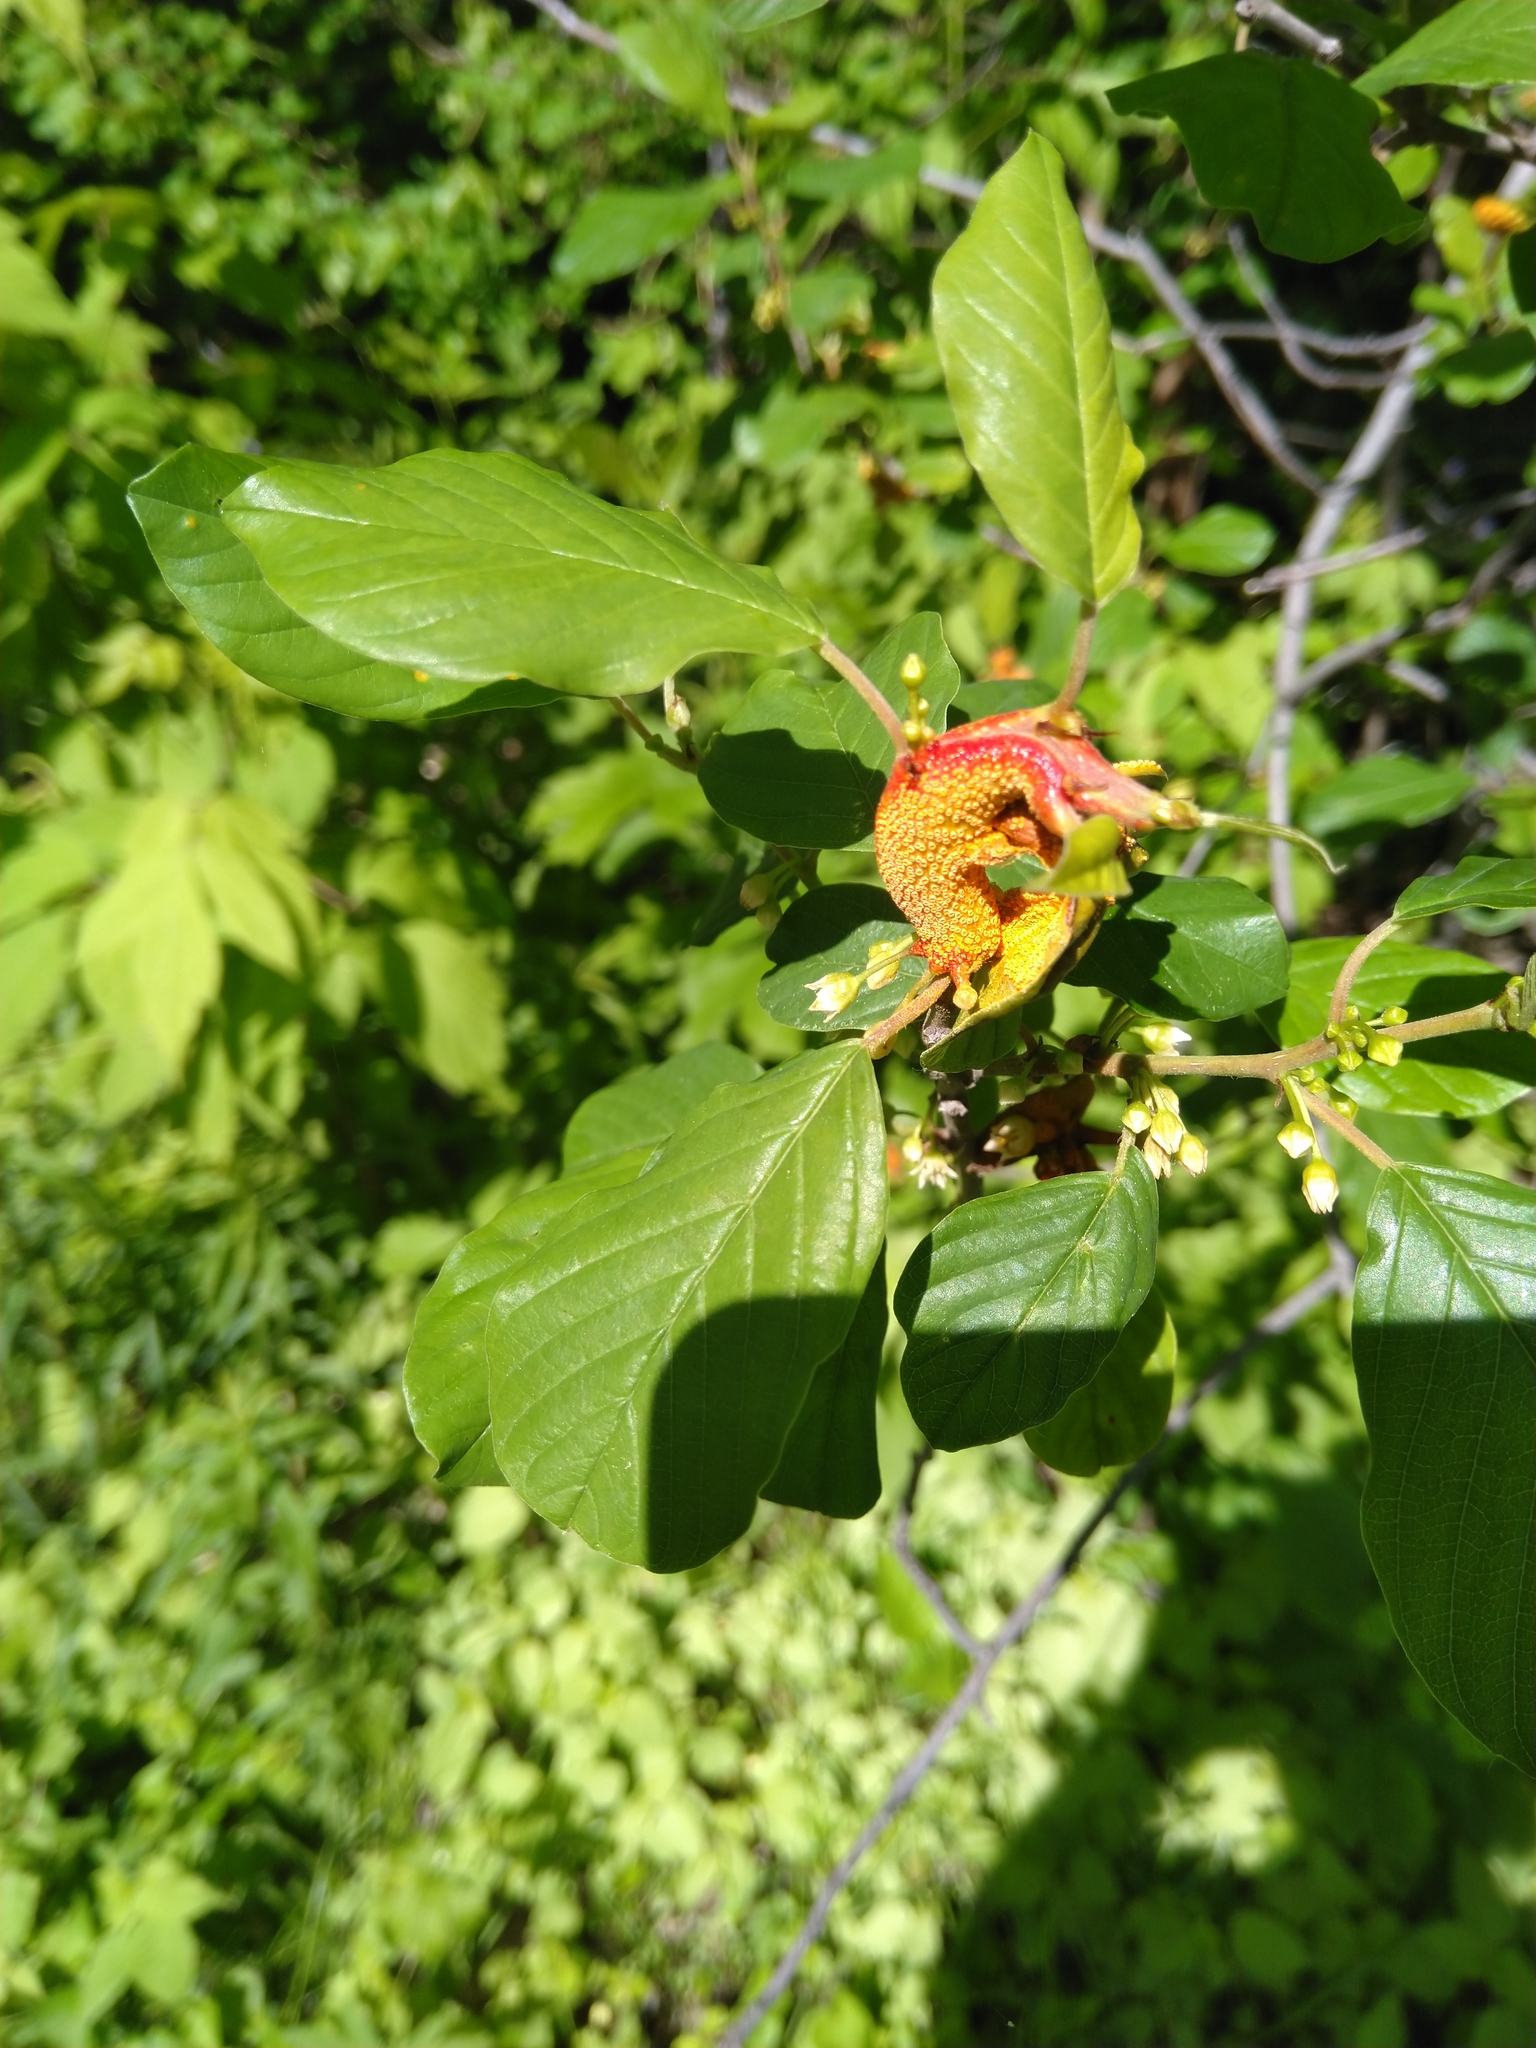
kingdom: Fungi
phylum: Basidiomycota
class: Pucciniomycetes
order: Pucciniales
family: Pucciniaceae
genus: Puccinia
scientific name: Puccinia
